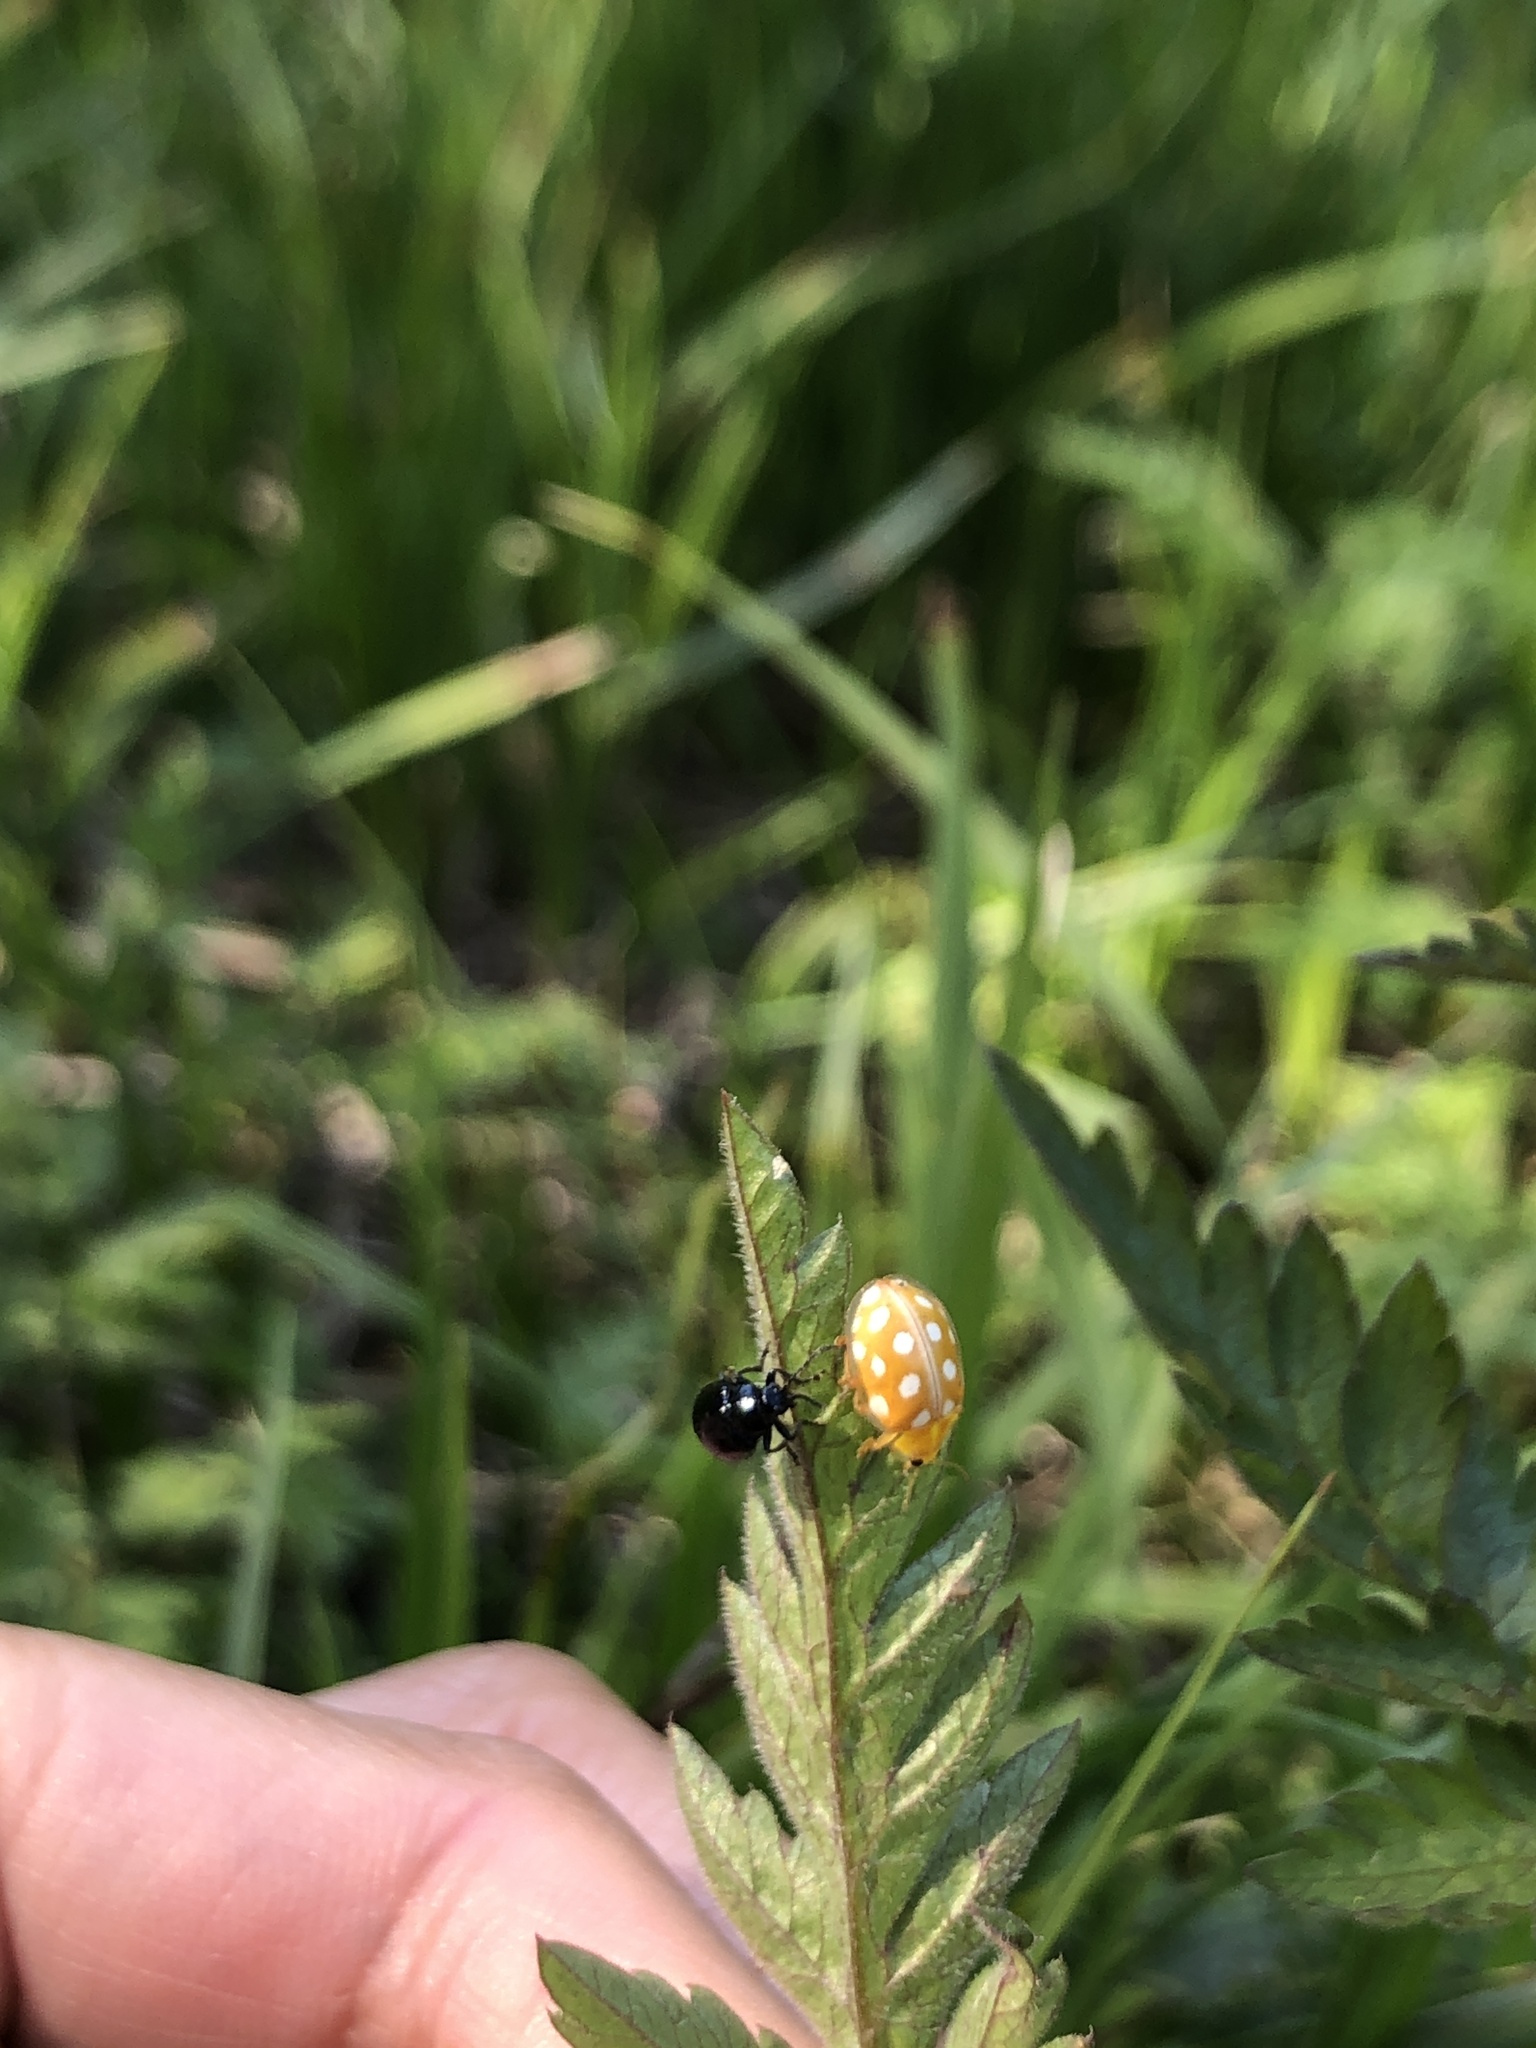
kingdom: Animalia
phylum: Arthropoda
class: Insecta
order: Coleoptera
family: Coccinellidae
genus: Halyzia
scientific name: Halyzia sedecimguttata
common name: Orange ladybird
